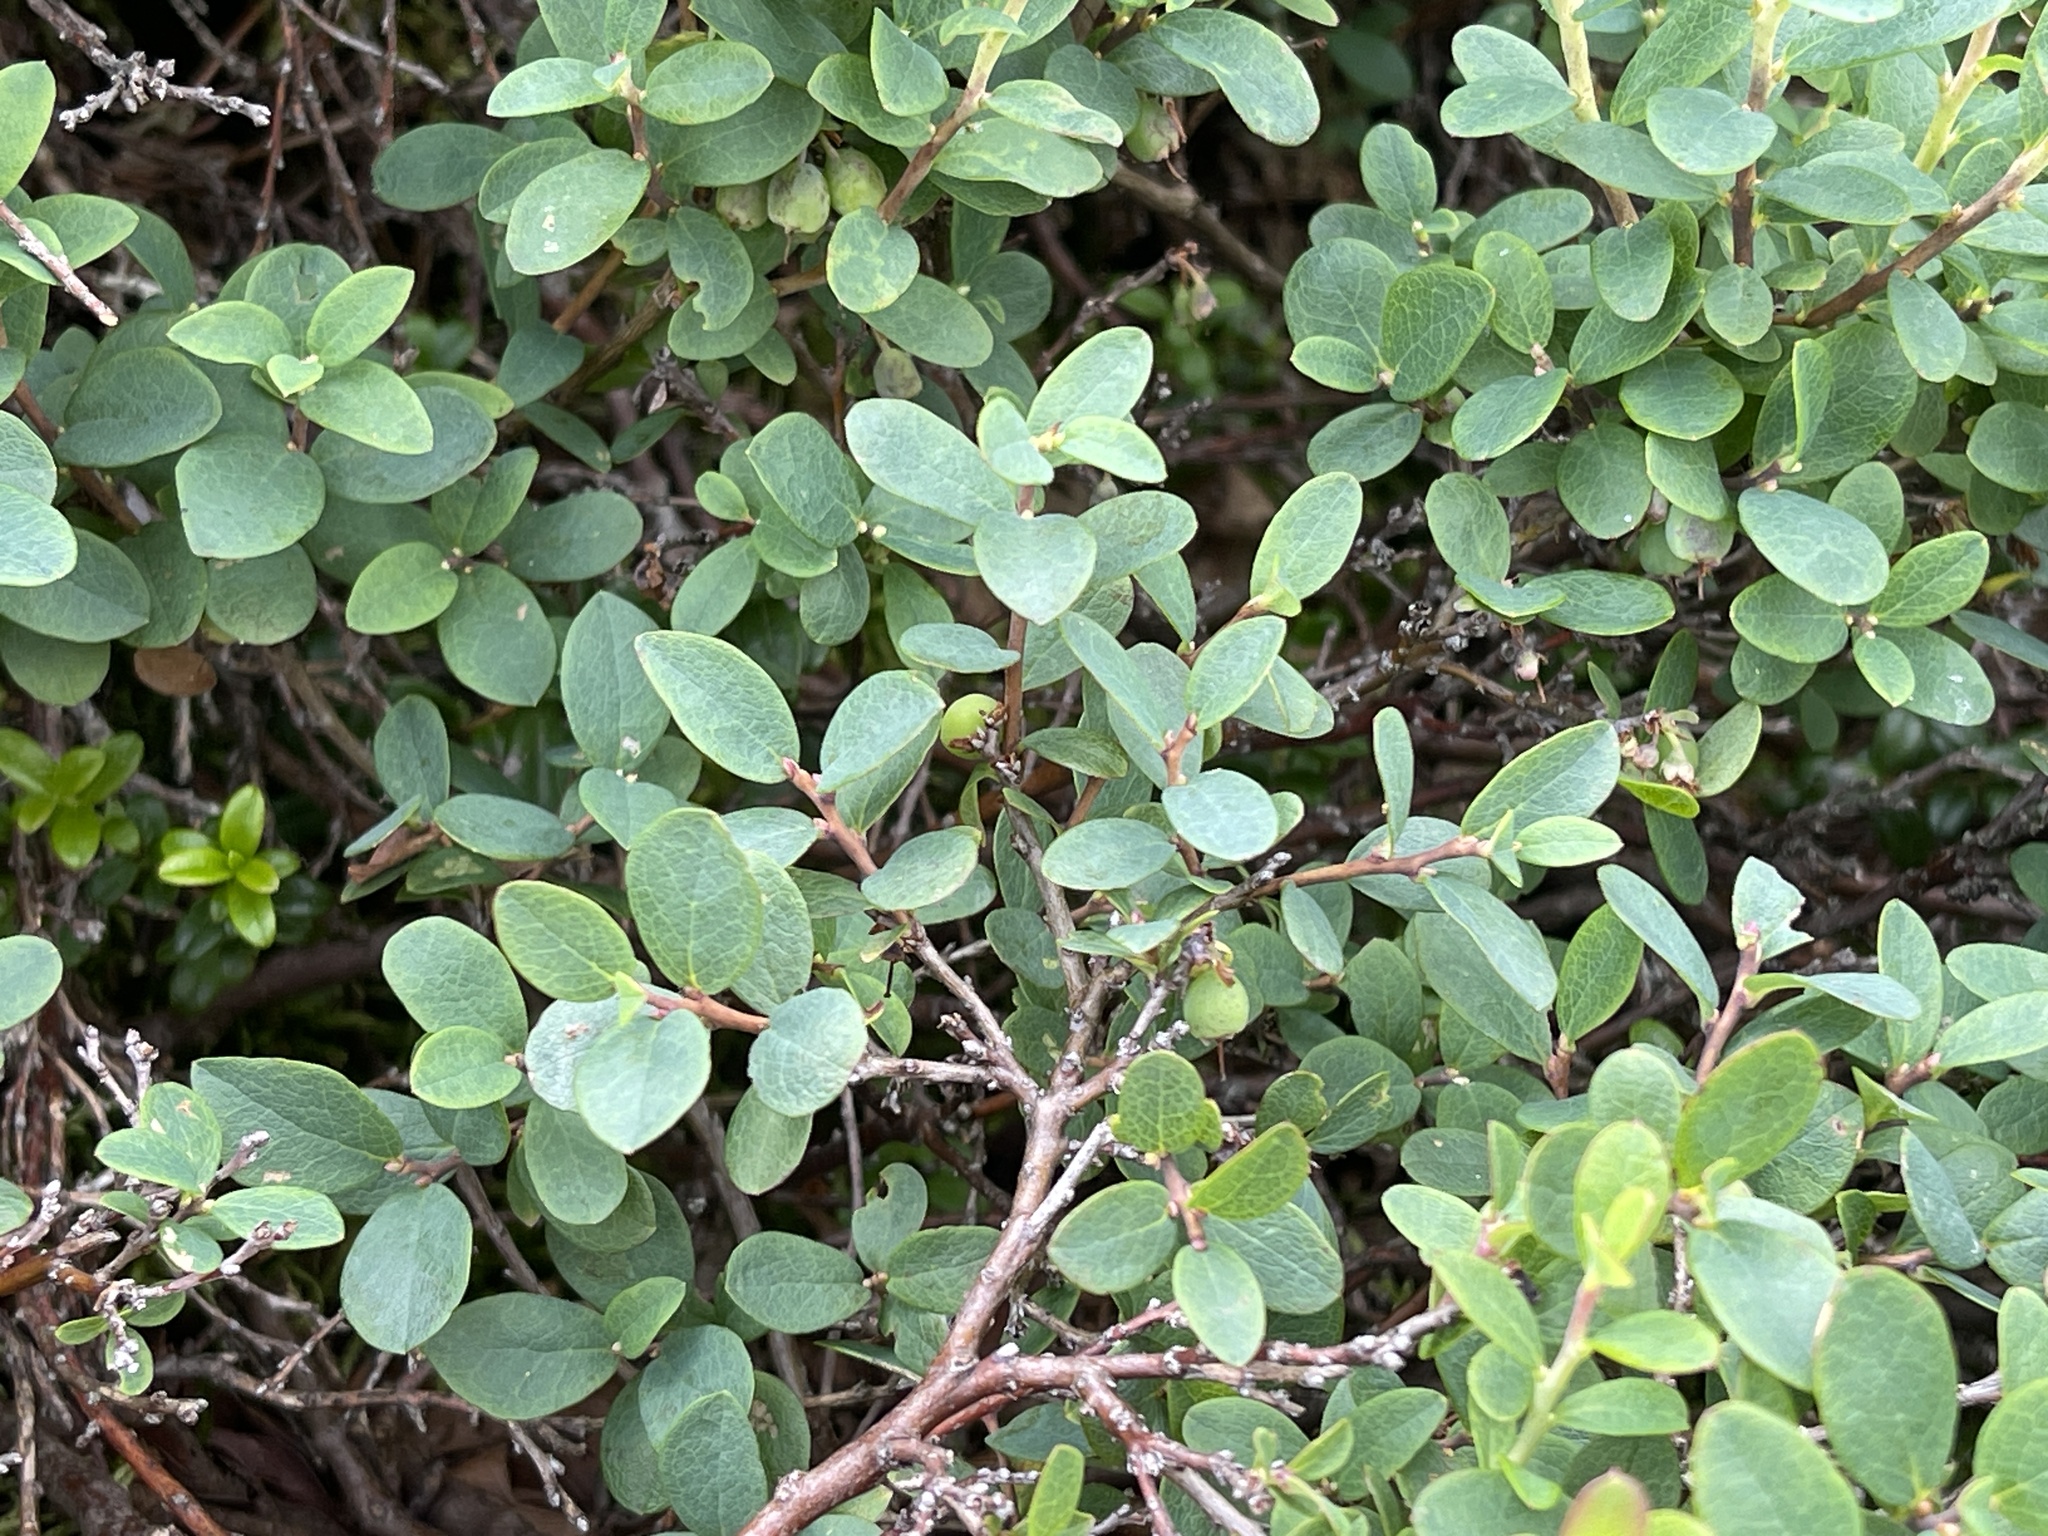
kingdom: Plantae
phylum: Tracheophyta
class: Magnoliopsida
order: Ericales
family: Ericaceae
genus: Vaccinium
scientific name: Vaccinium uliginosum
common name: Bog bilberry
